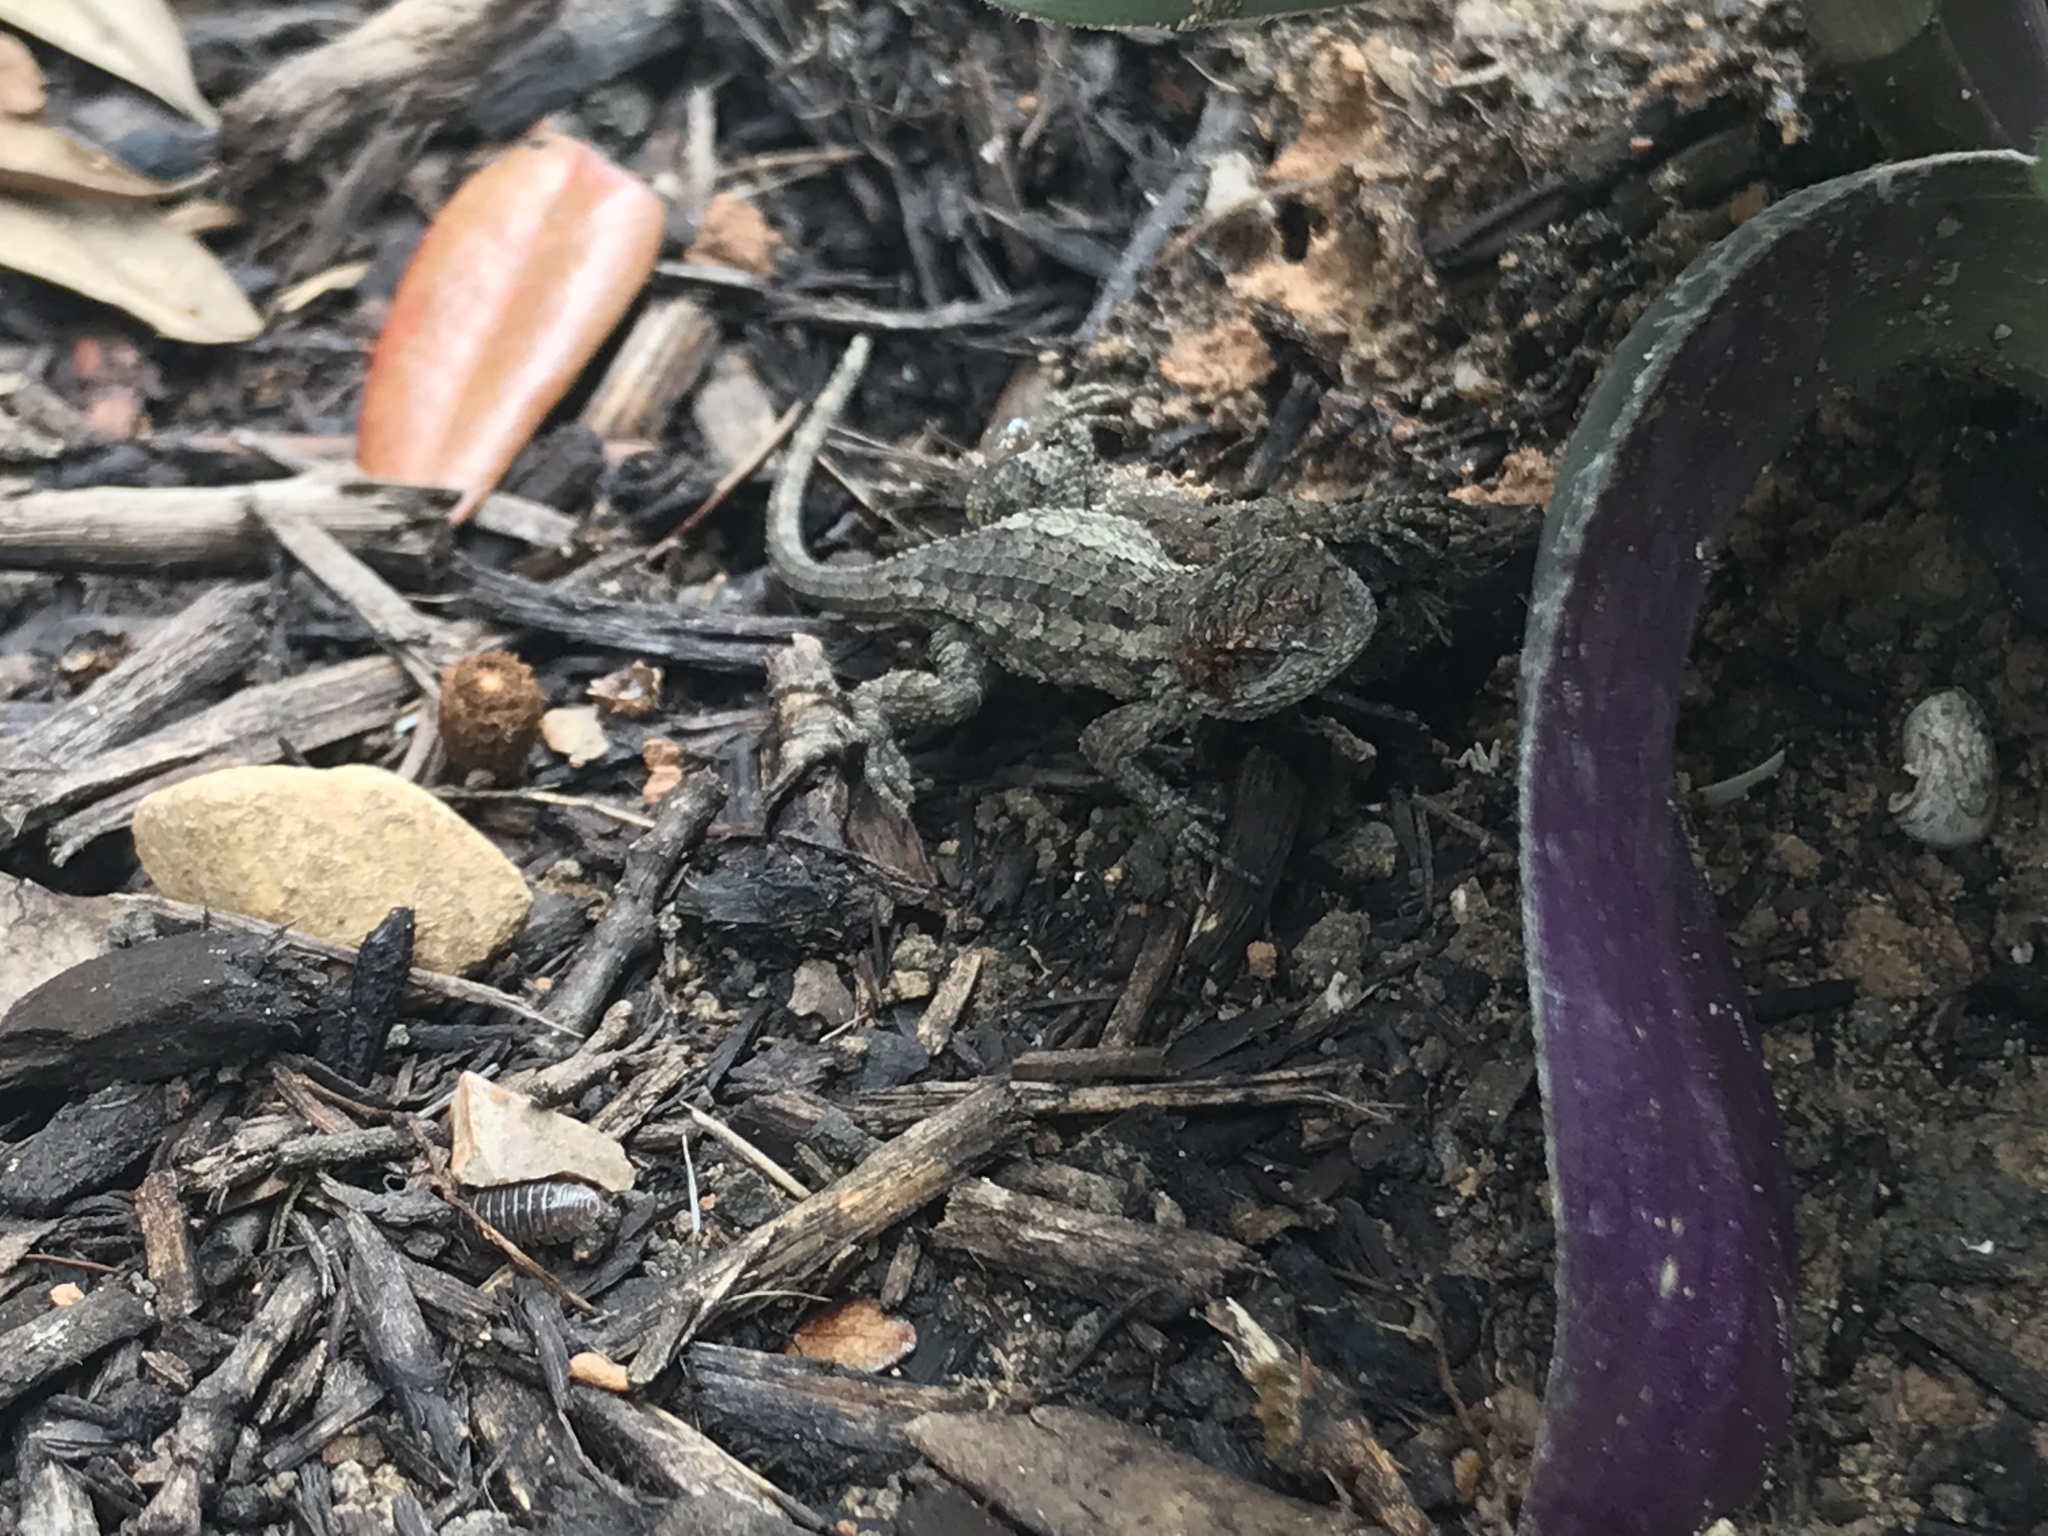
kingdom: Animalia
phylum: Chordata
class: Squamata
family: Phrynosomatidae
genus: Sceloporus
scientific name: Sceloporus olivaceus
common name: Texas spiny lizard
